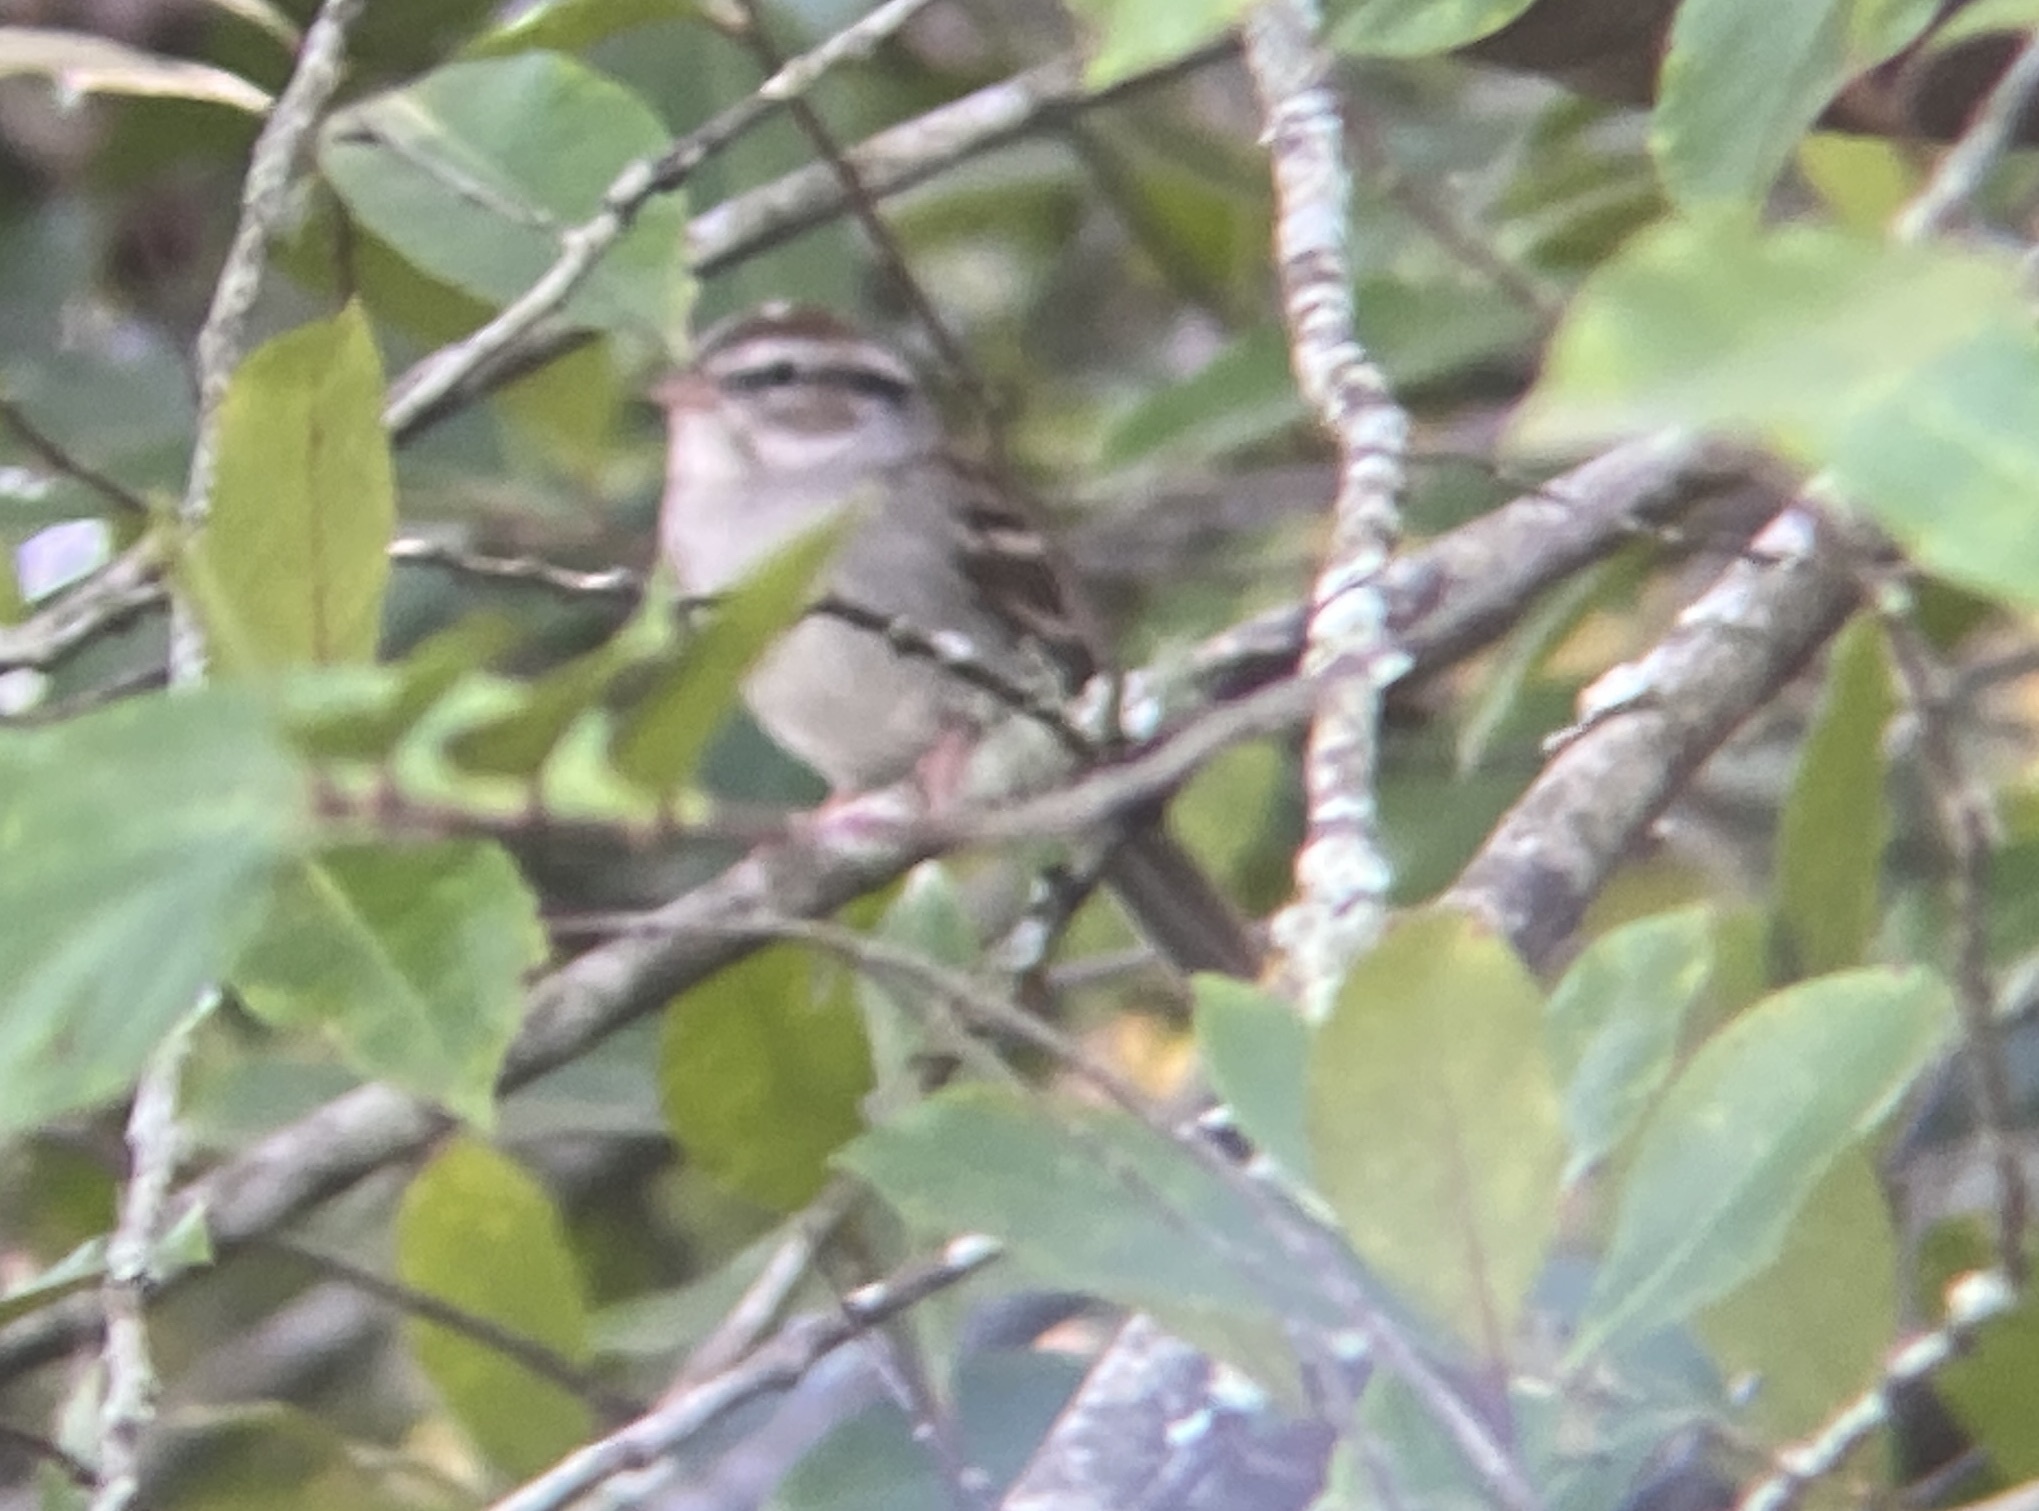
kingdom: Animalia
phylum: Chordata
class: Aves
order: Passeriformes
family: Passerellidae
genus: Spizella
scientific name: Spizella passerina
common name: Chipping sparrow
